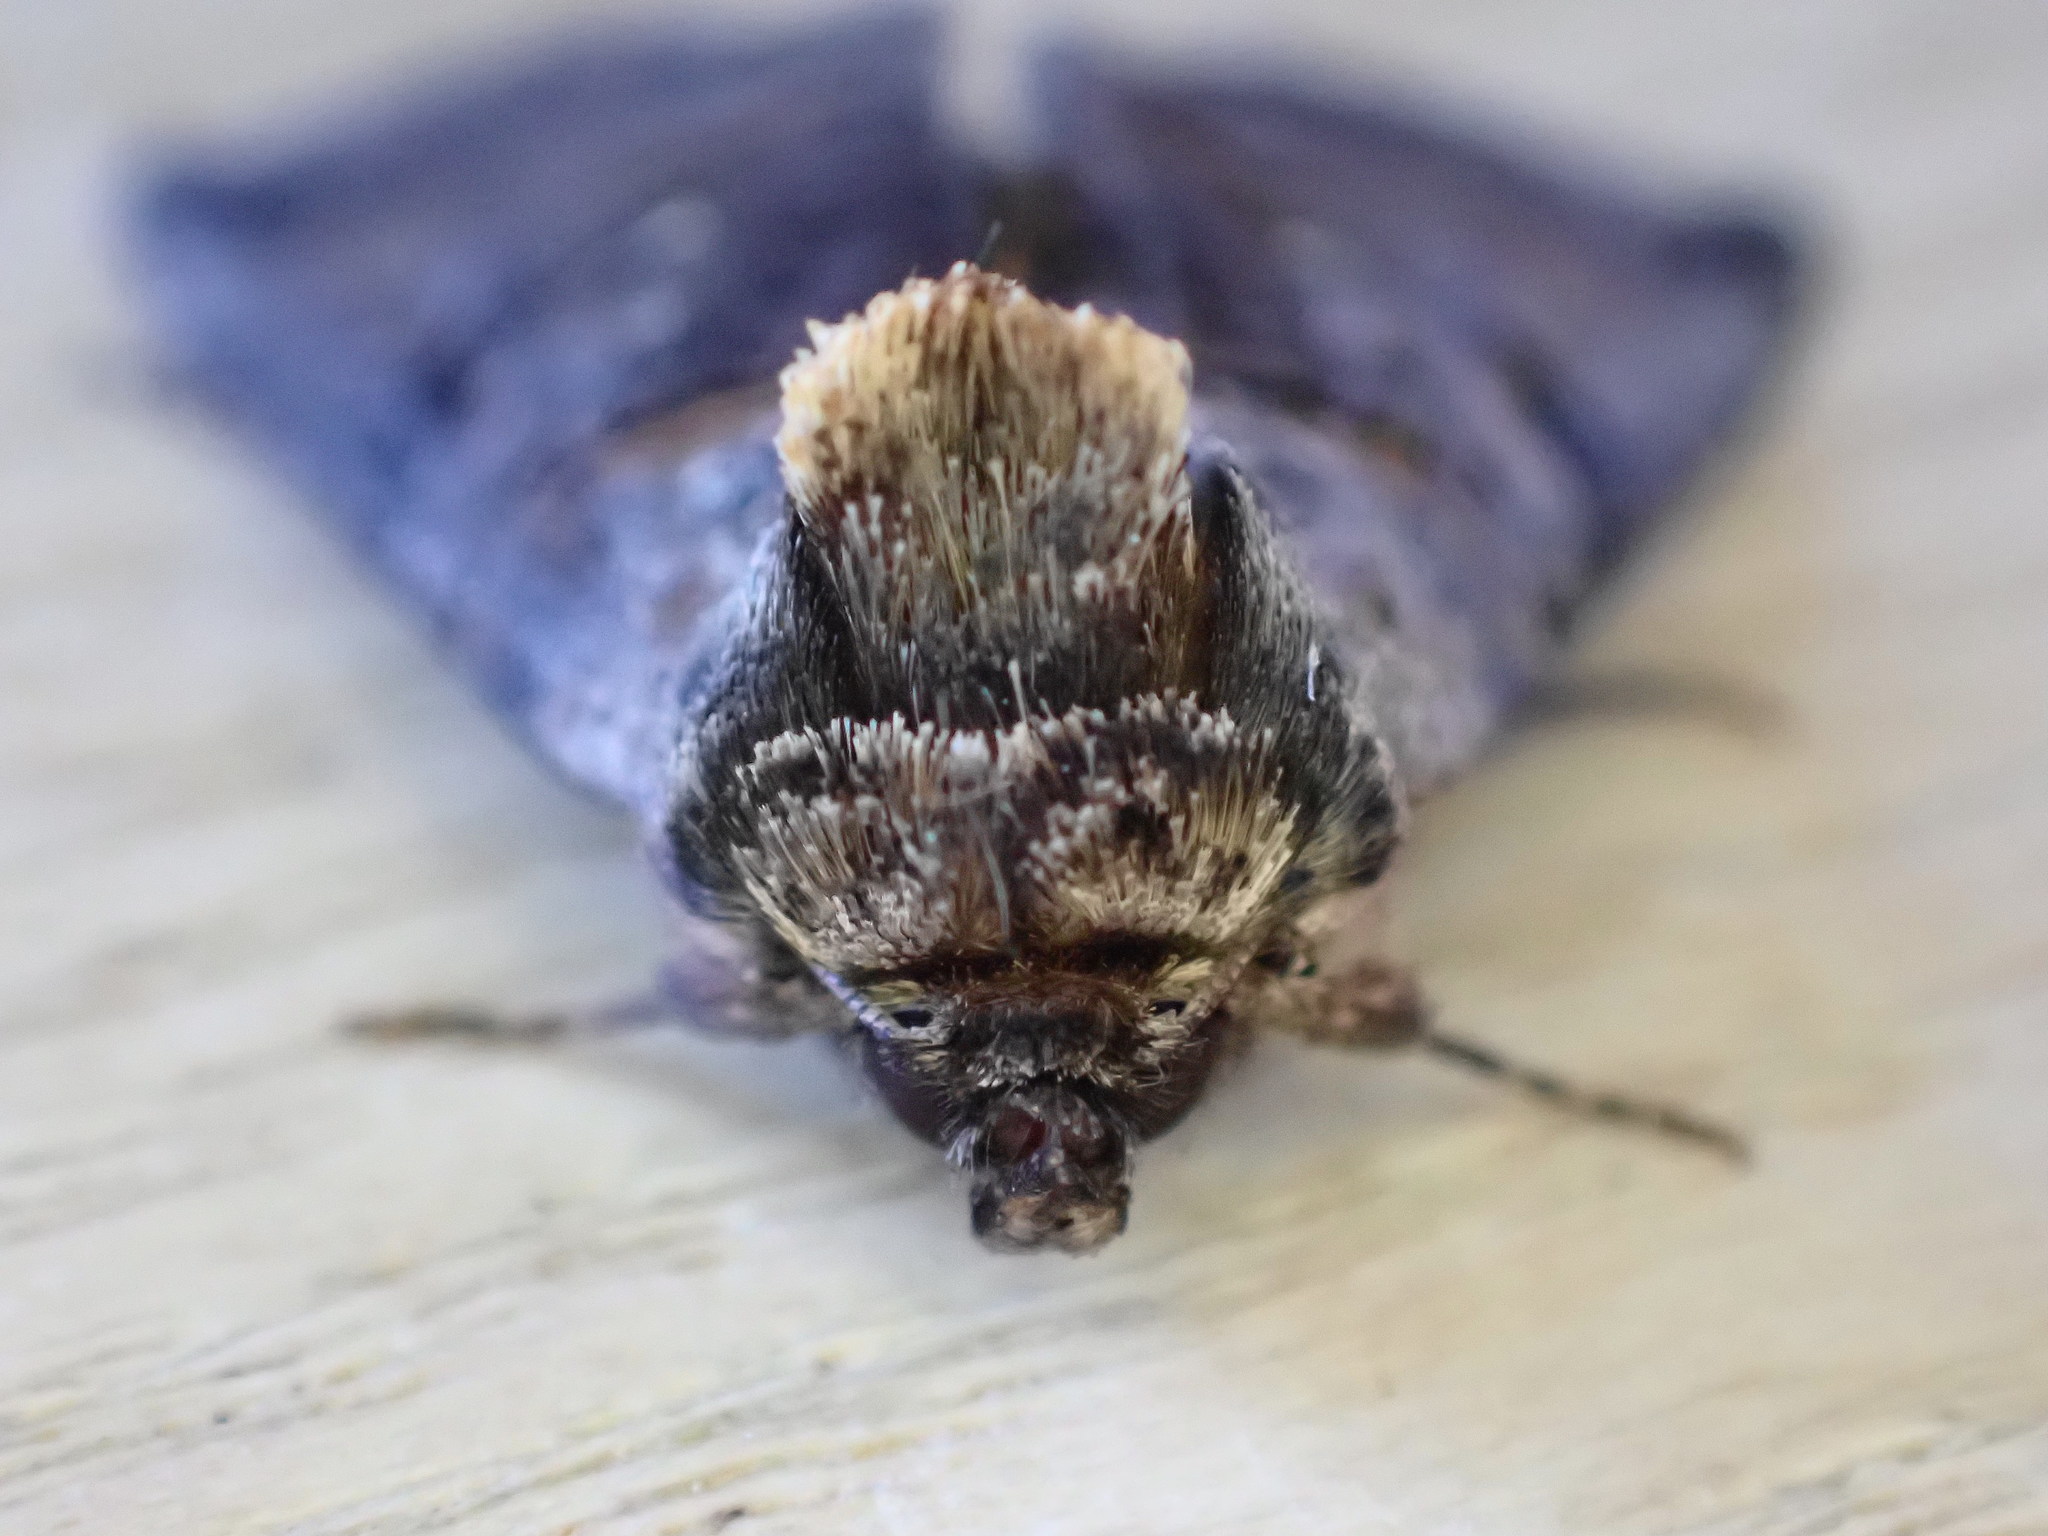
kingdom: Animalia
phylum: Arthropoda
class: Insecta
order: Lepidoptera
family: Noctuidae
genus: Abrostola
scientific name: Abrostola tripartita
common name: Spectacle
